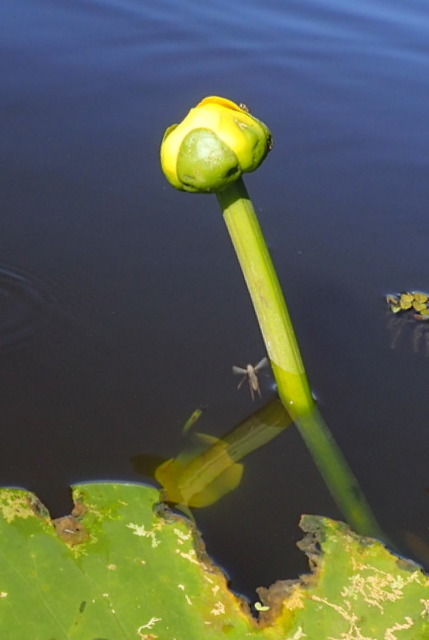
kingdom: Plantae
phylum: Tracheophyta
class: Magnoliopsida
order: Nymphaeales
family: Nymphaeaceae
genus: Nuphar
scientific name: Nuphar advena
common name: Spatter-dock
